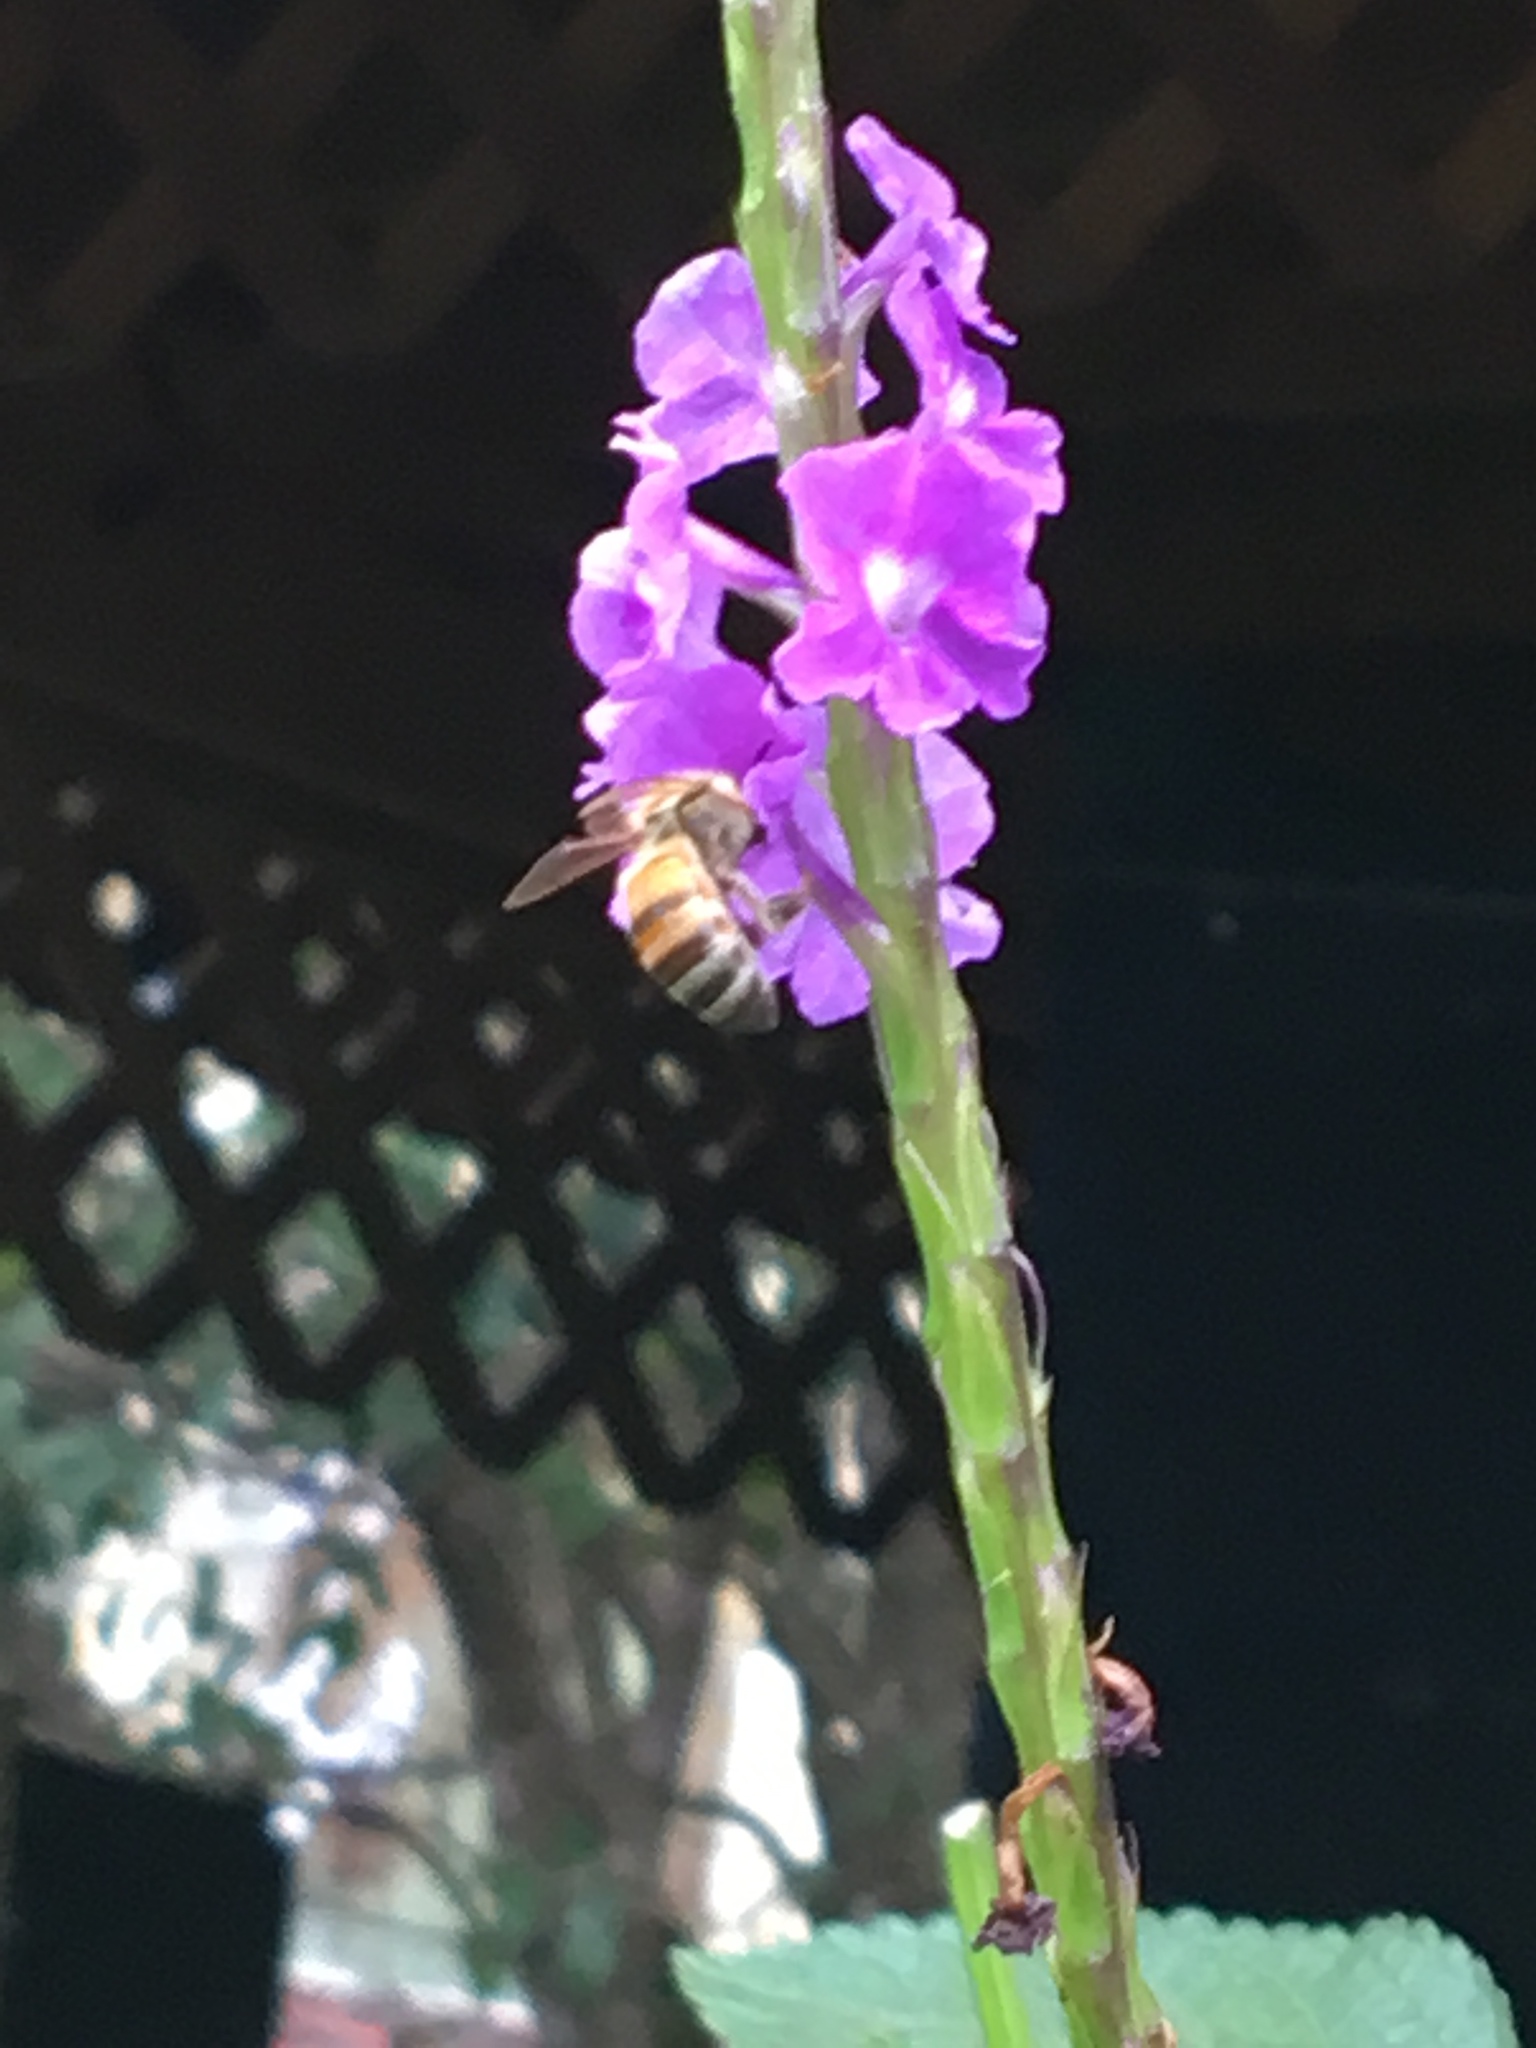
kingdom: Animalia
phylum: Arthropoda
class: Insecta
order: Hymenoptera
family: Apidae
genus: Apis
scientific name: Apis mellifera
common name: Honey bee
